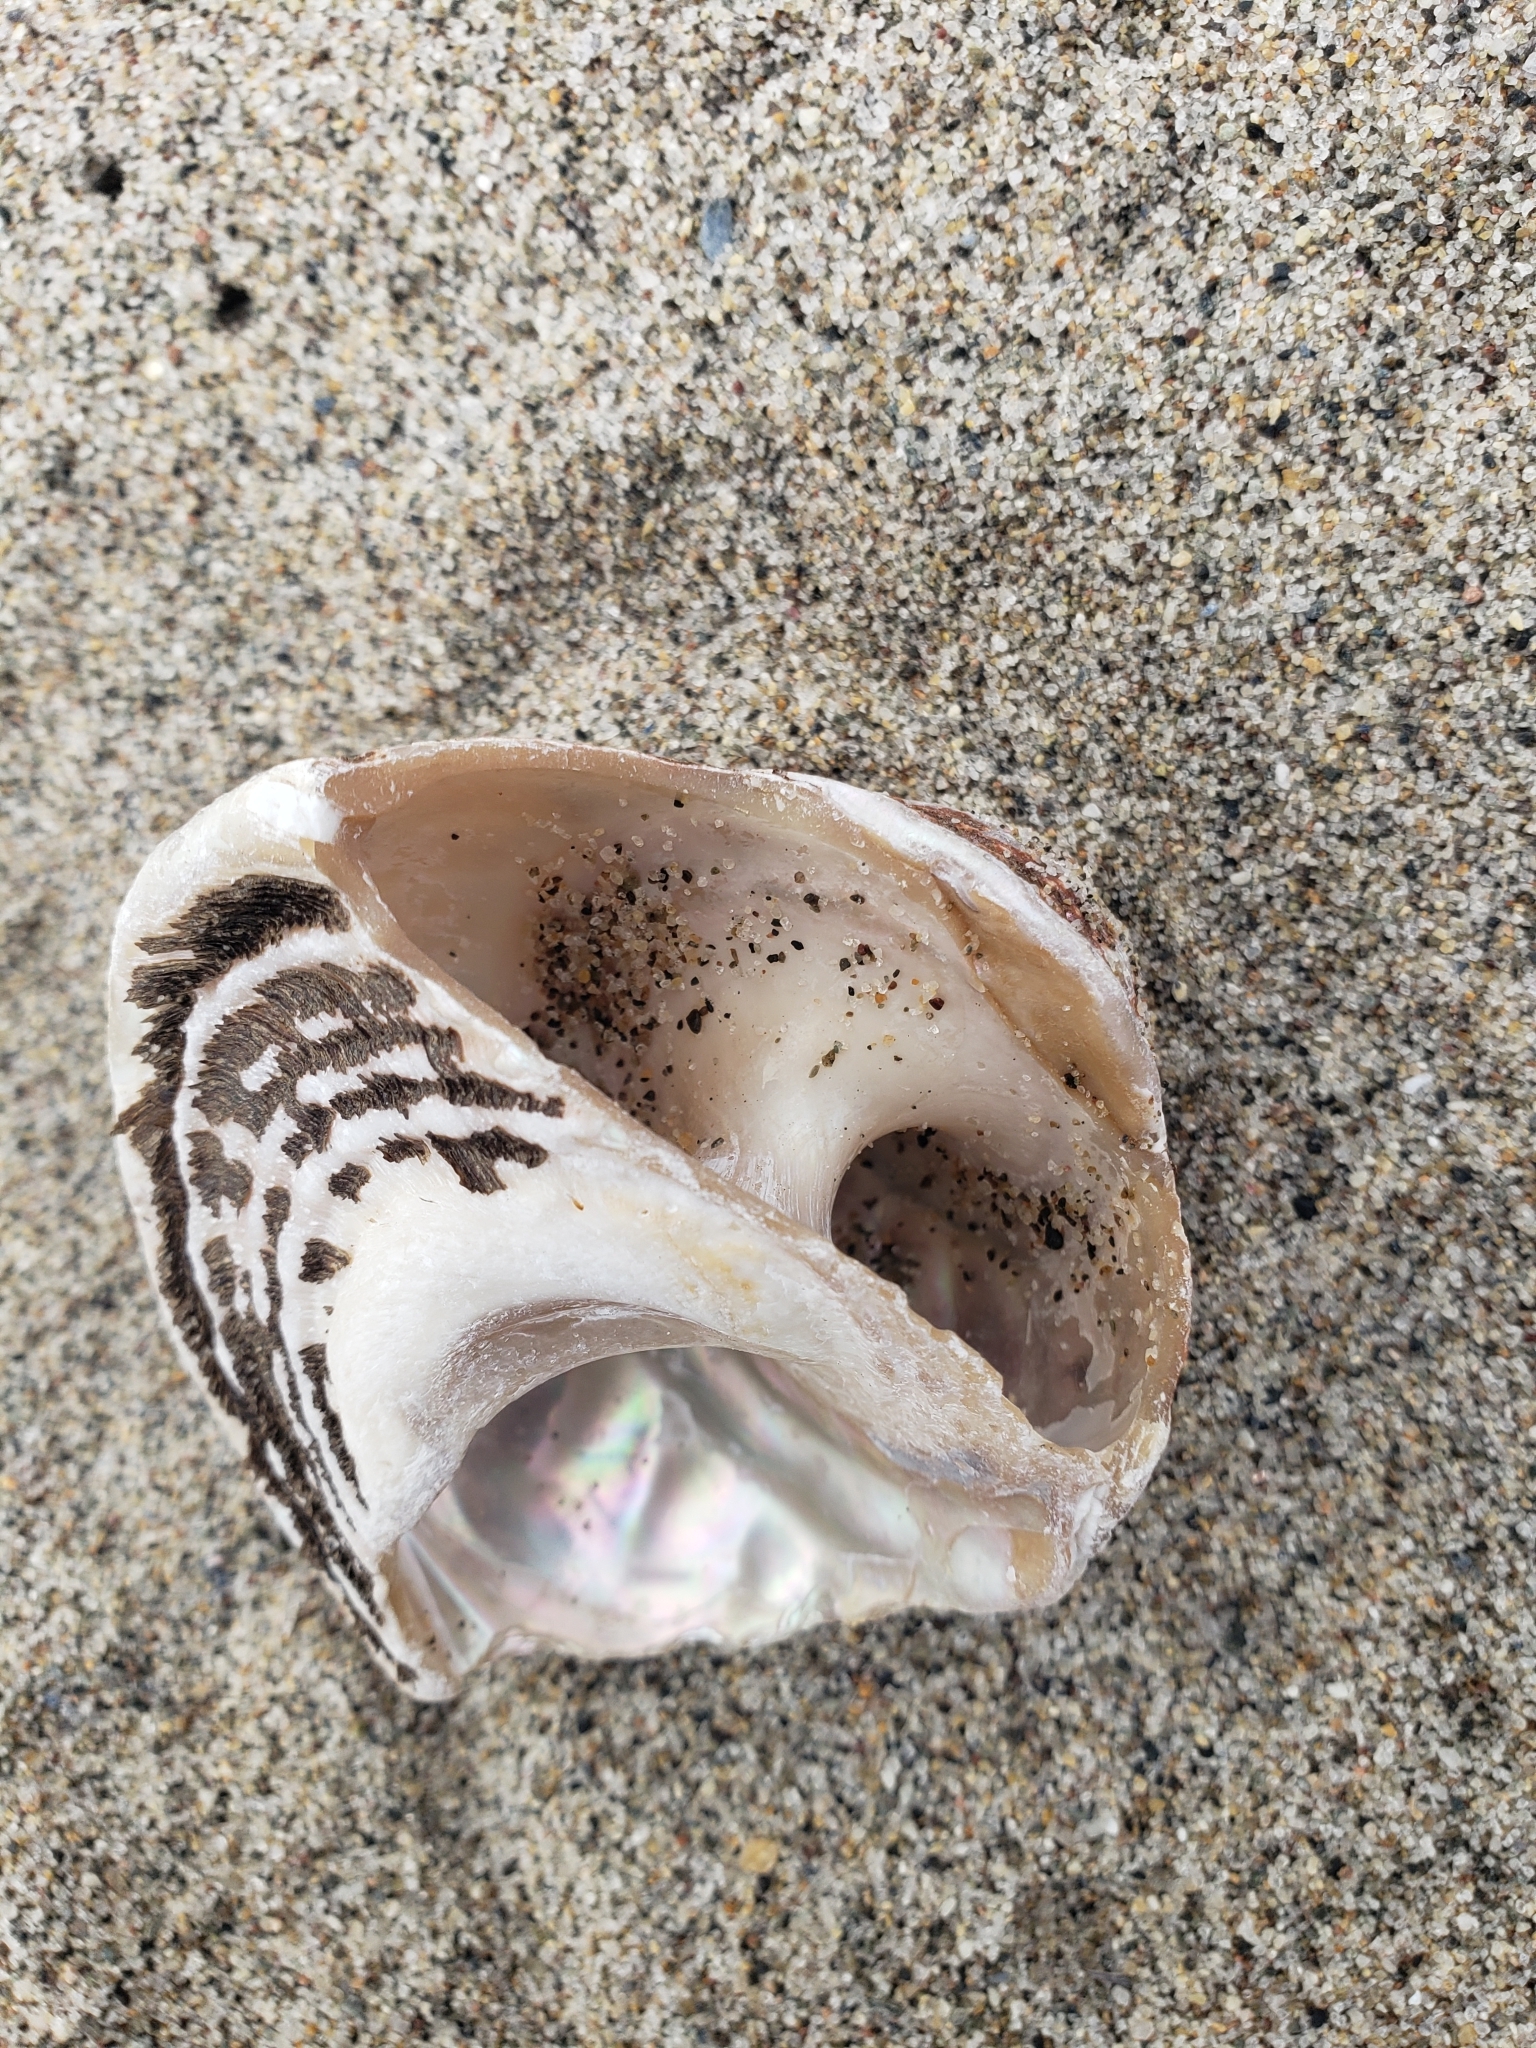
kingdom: Animalia
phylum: Mollusca
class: Gastropoda
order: Trochida
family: Turbinidae
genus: Megastraea
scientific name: Megastraea undosa
